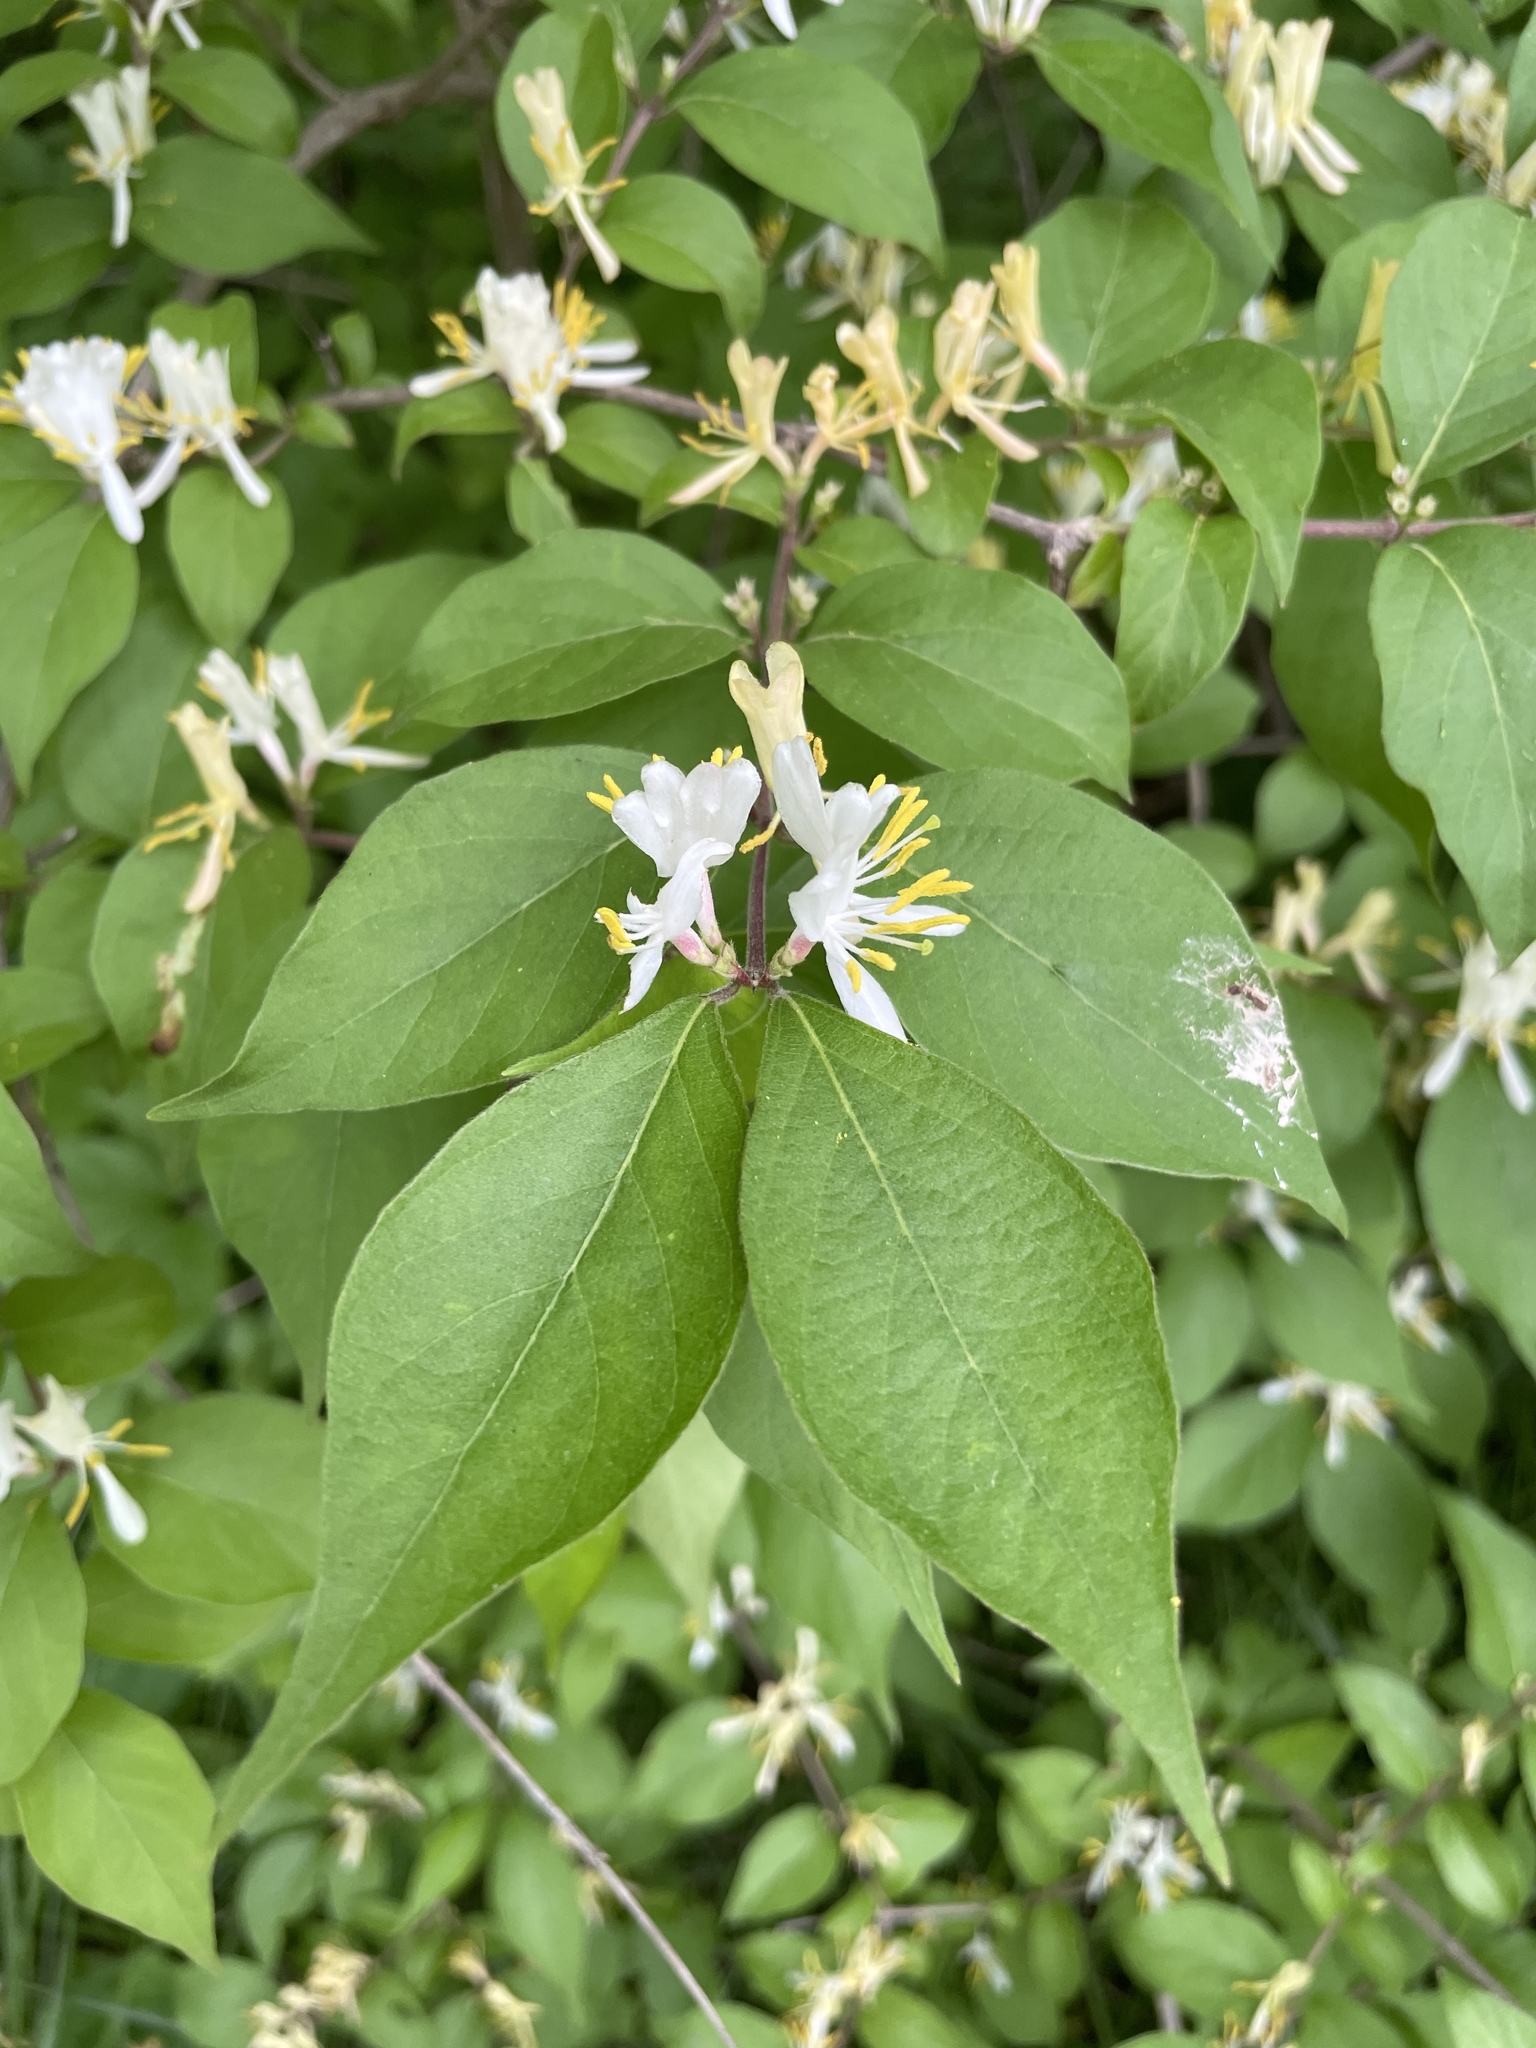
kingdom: Plantae
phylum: Tracheophyta
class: Magnoliopsida
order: Dipsacales
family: Caprifoliaceae
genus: Lonicera
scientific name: Lonicera maackii
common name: Amur honeysuckle
